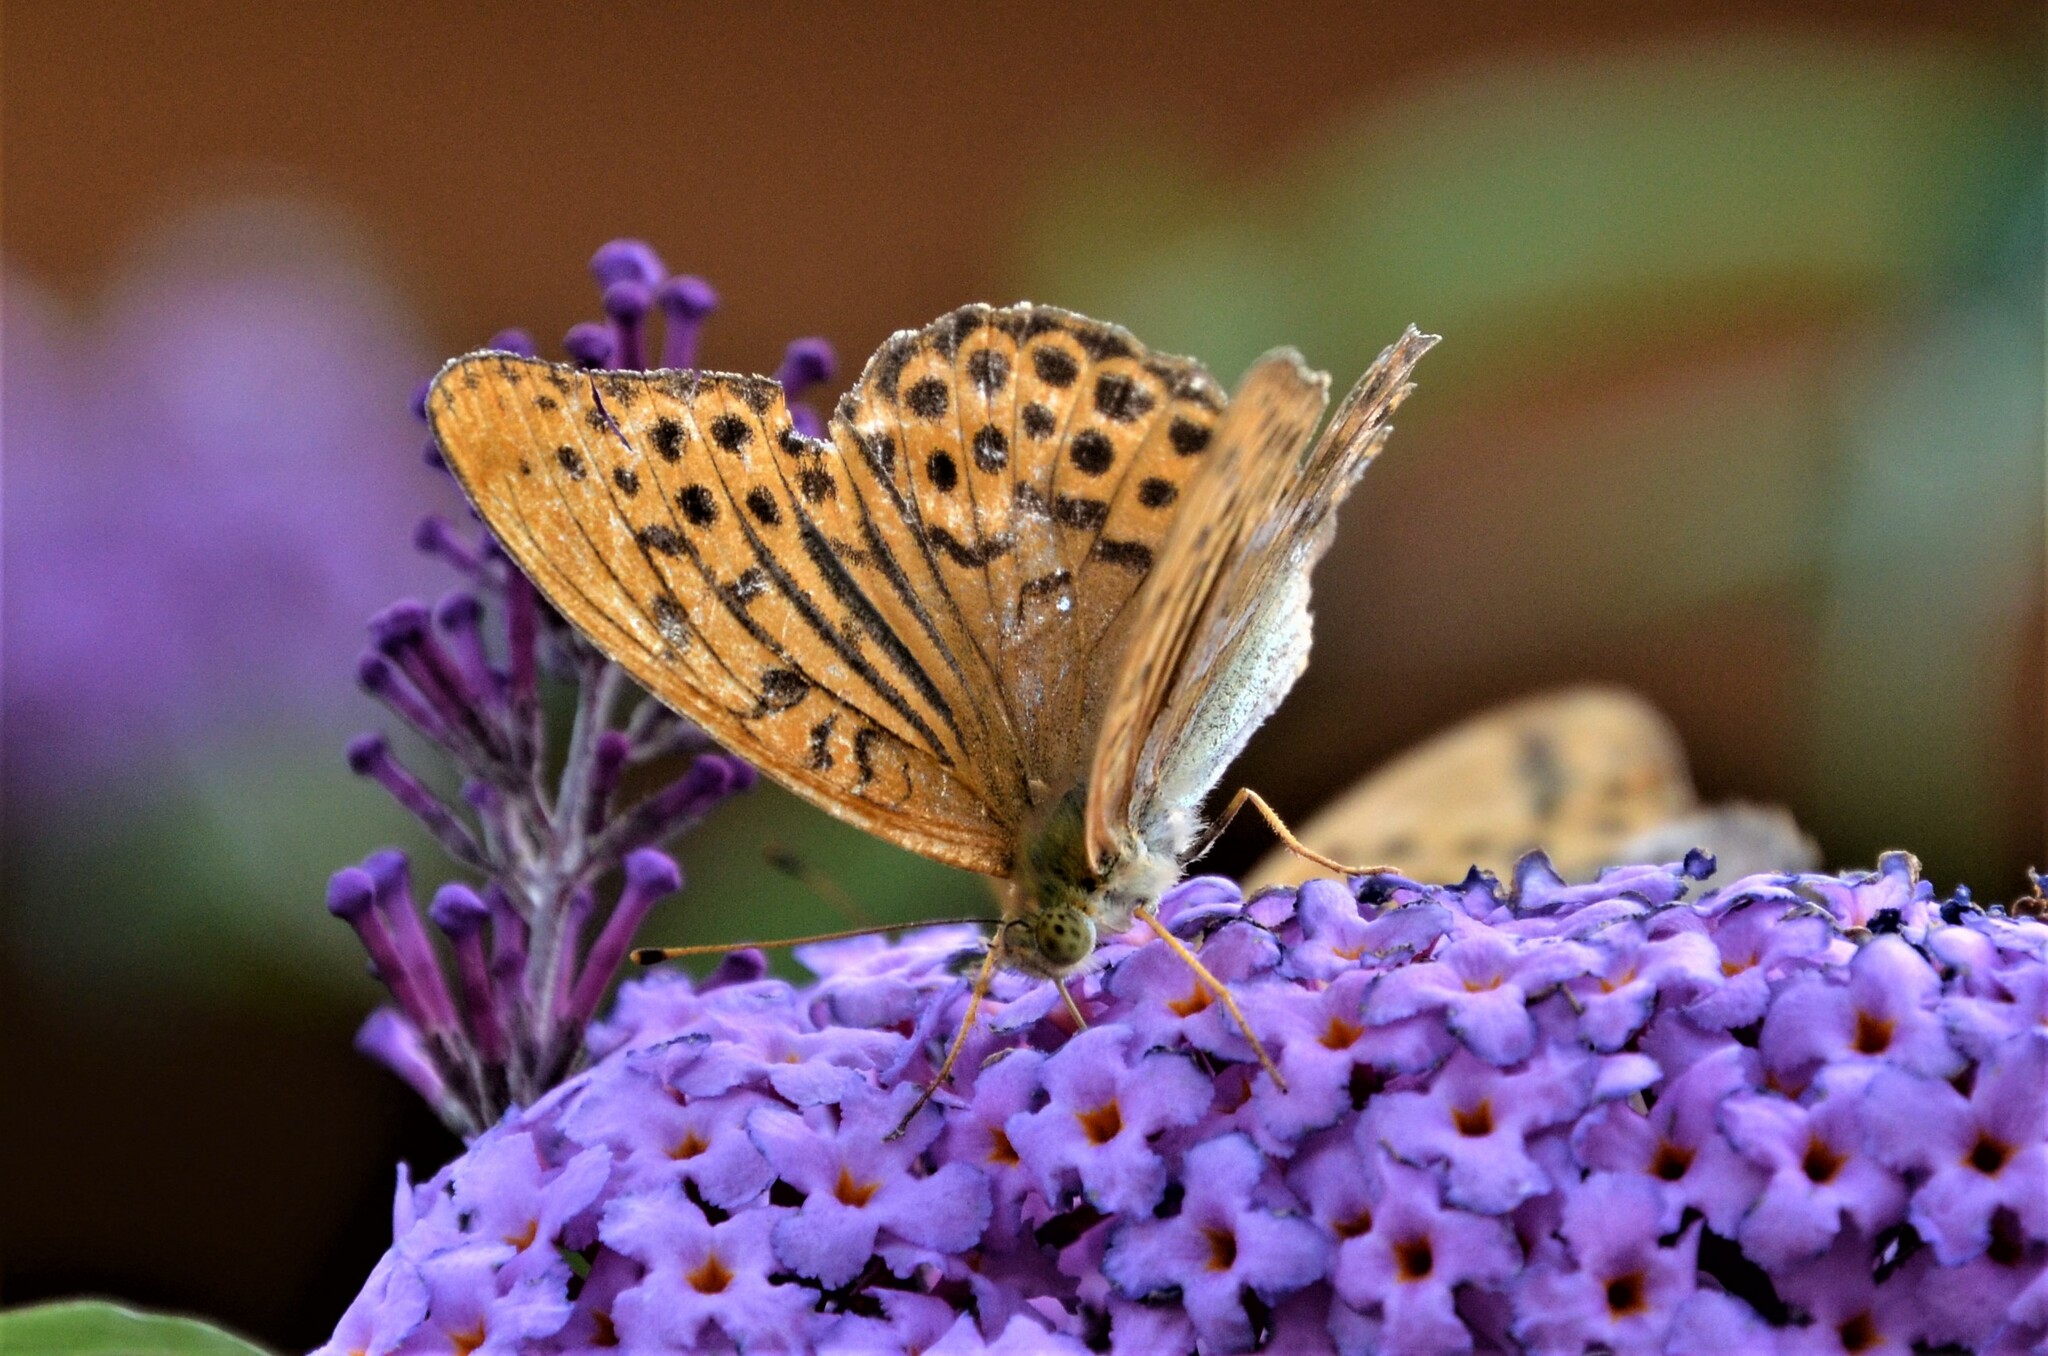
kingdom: Animalia
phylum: Arthropoda
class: Insecta
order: Lepidoptera
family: Nymphalidae
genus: Argynnis
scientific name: Argynnis paphia
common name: Silver-washed fritillary
